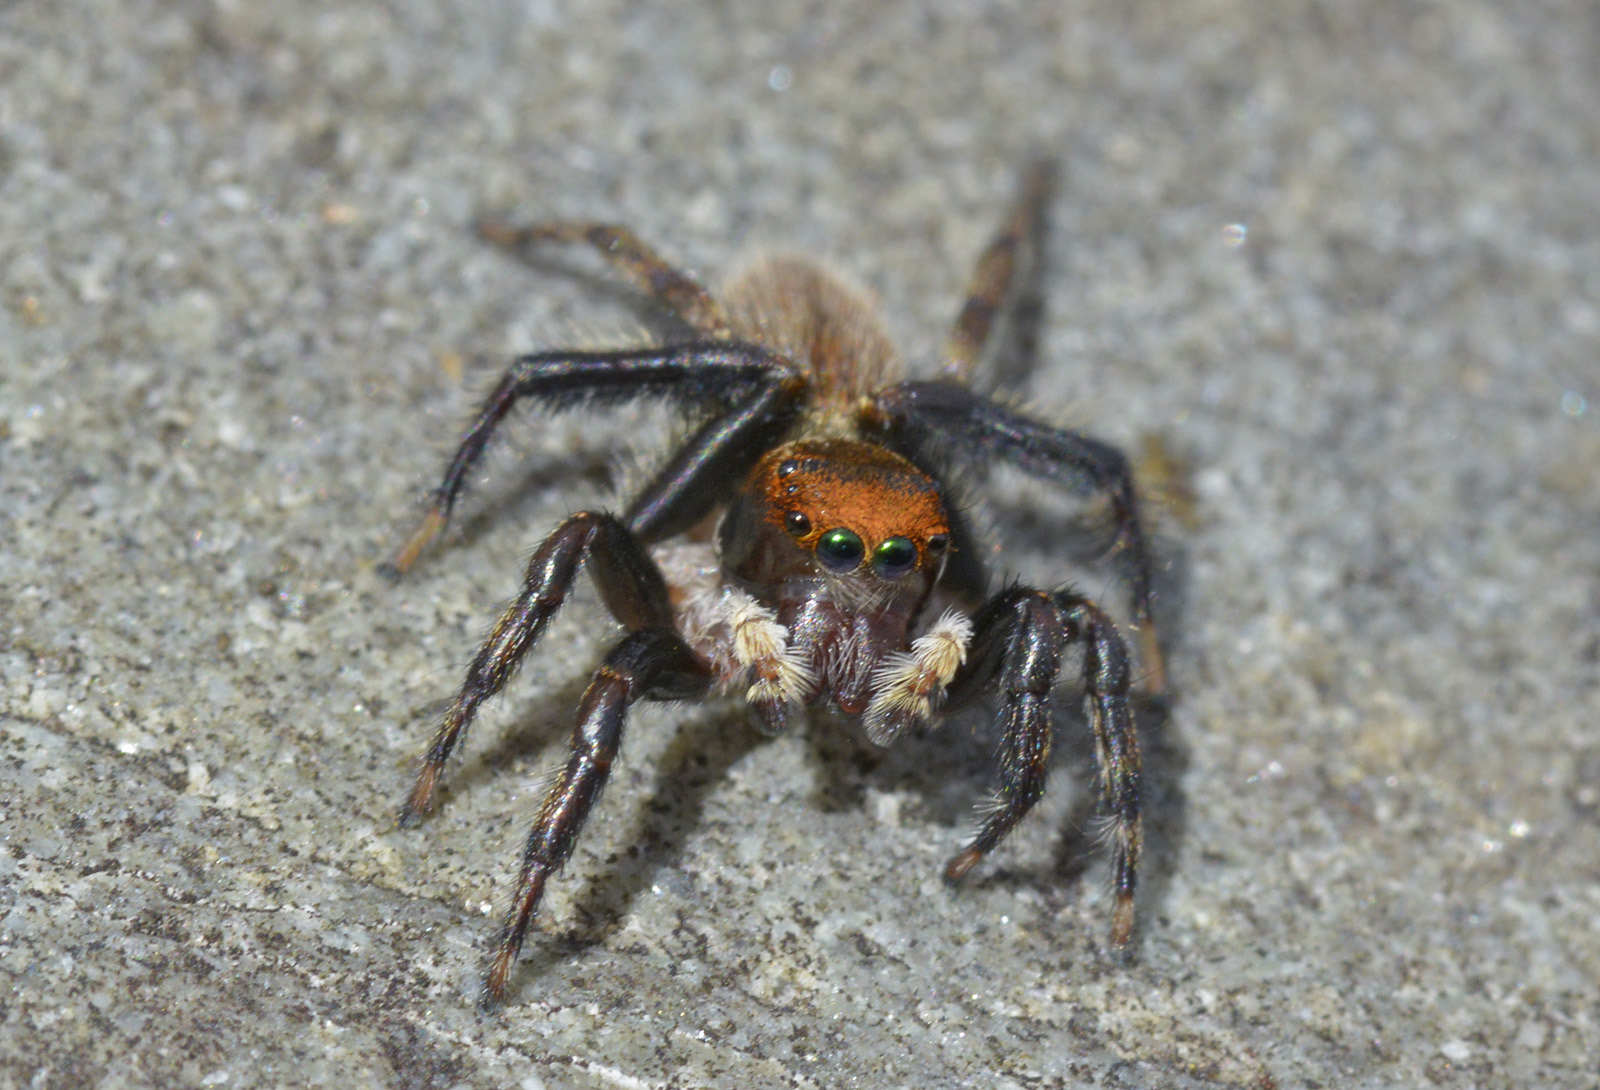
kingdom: Animalia
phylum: Arthropoda
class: Arachnida
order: Araneae
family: Salticidae
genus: Maratus
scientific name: Maratus griseus
